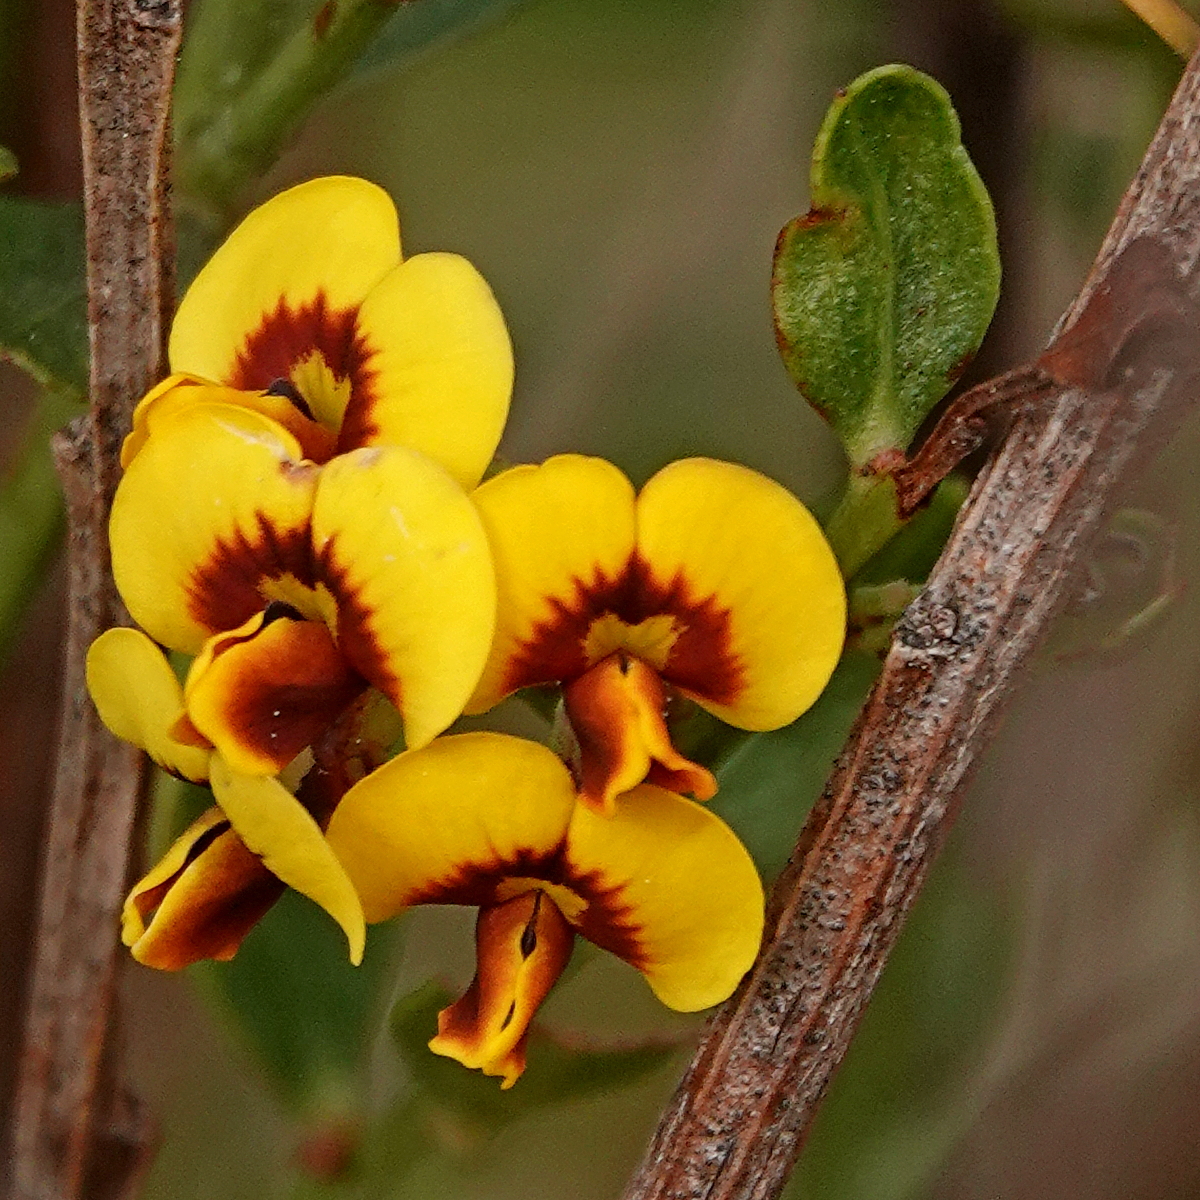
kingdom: Plantae
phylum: Tracheophyta
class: Magnoliopsida
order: Fabales
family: Fabaceae
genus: Daviesia
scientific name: Daviesia buxifolia
